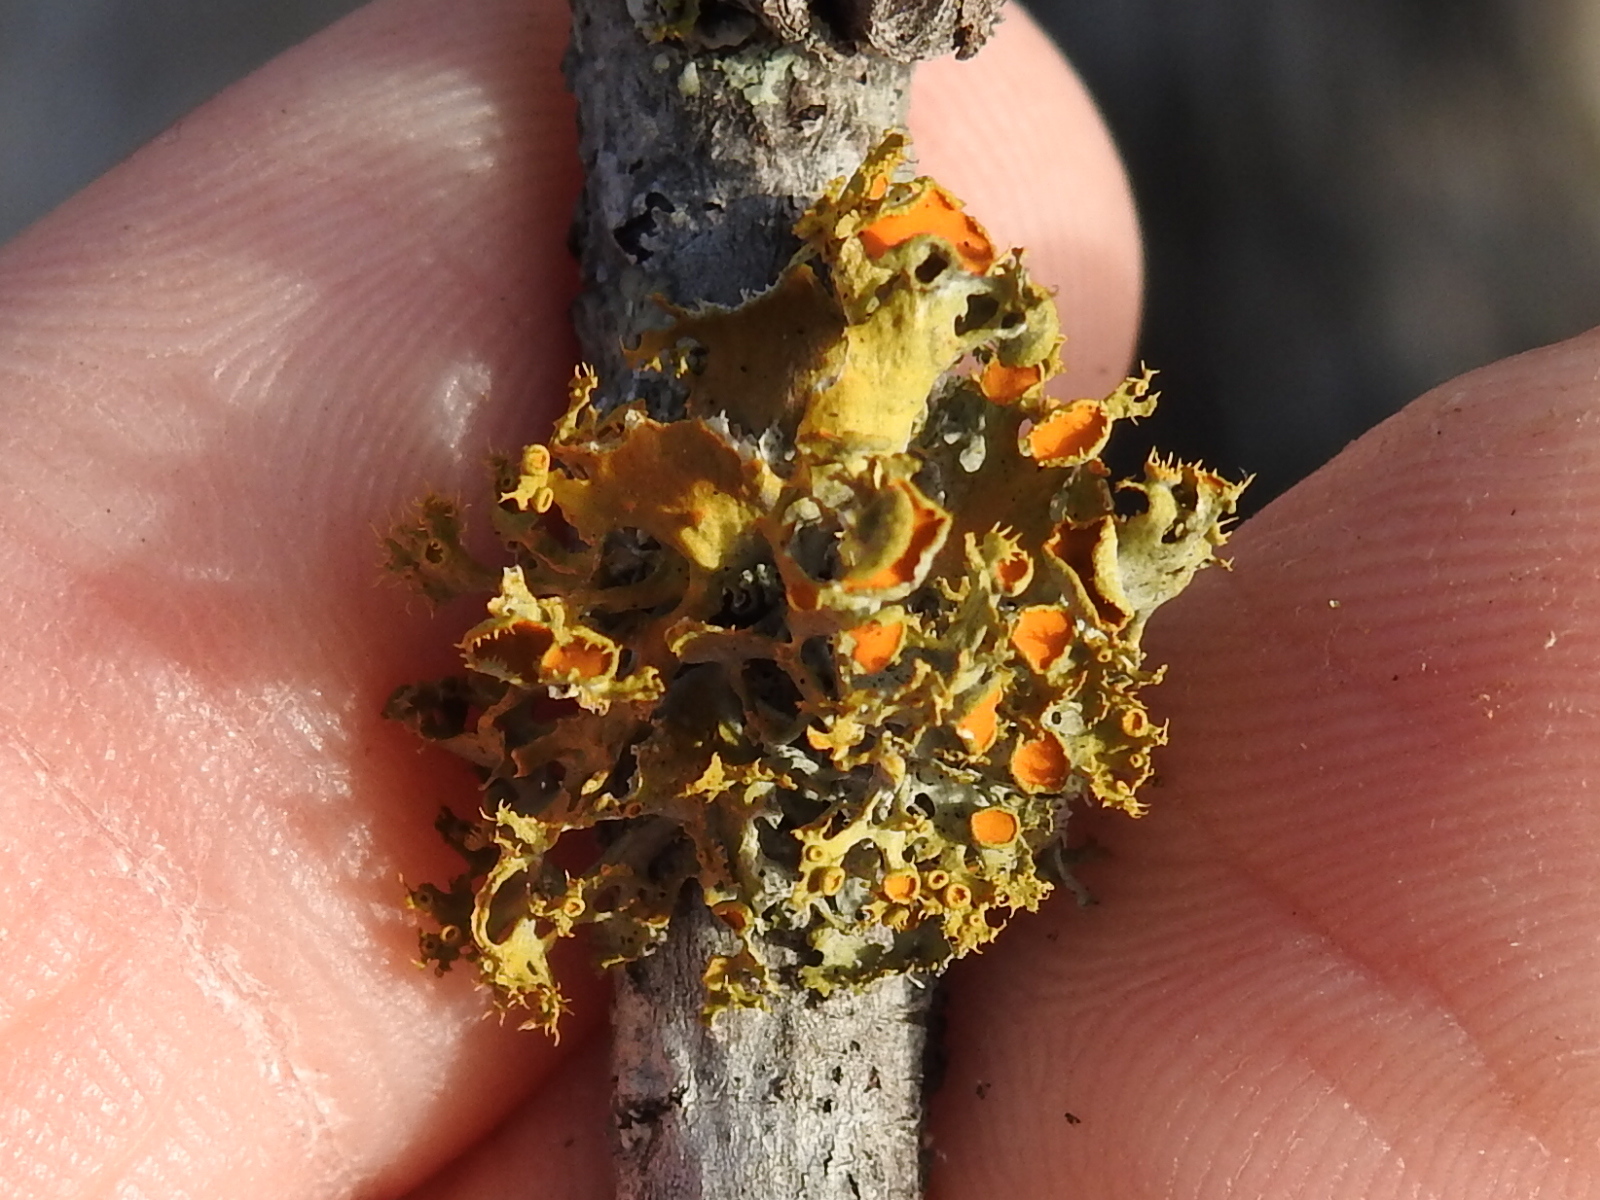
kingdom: Fungi
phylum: Ascomycota
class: Lecanoromycetes
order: Teloschistales
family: Teloschistaceae
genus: Niorma
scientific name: Niorma chrysophthalma
